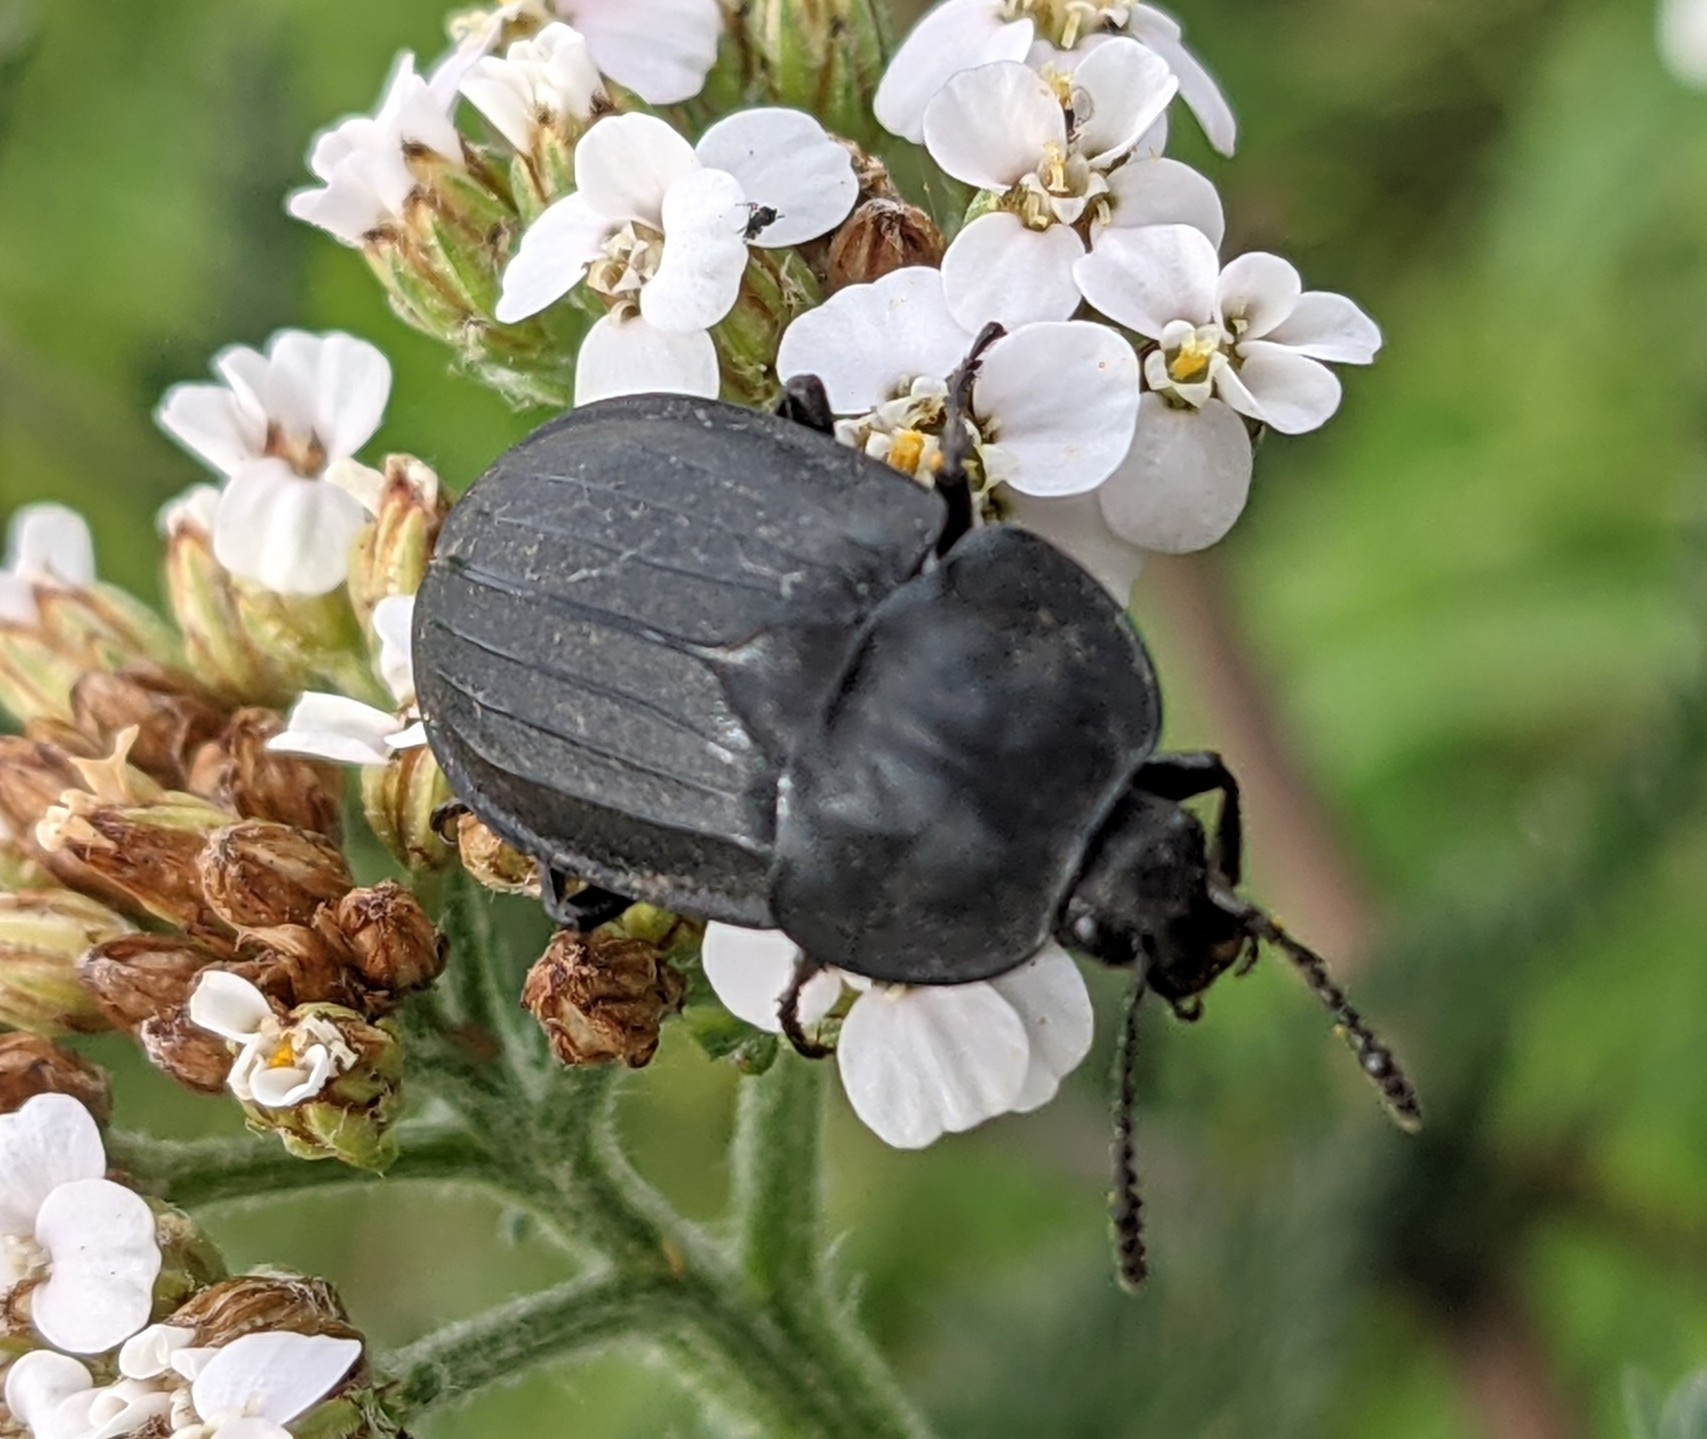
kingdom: Animalia
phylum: Arthropoda
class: Insecta
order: Coleoptera
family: Staphylinidae
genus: Silpha
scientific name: Silpha tristis
